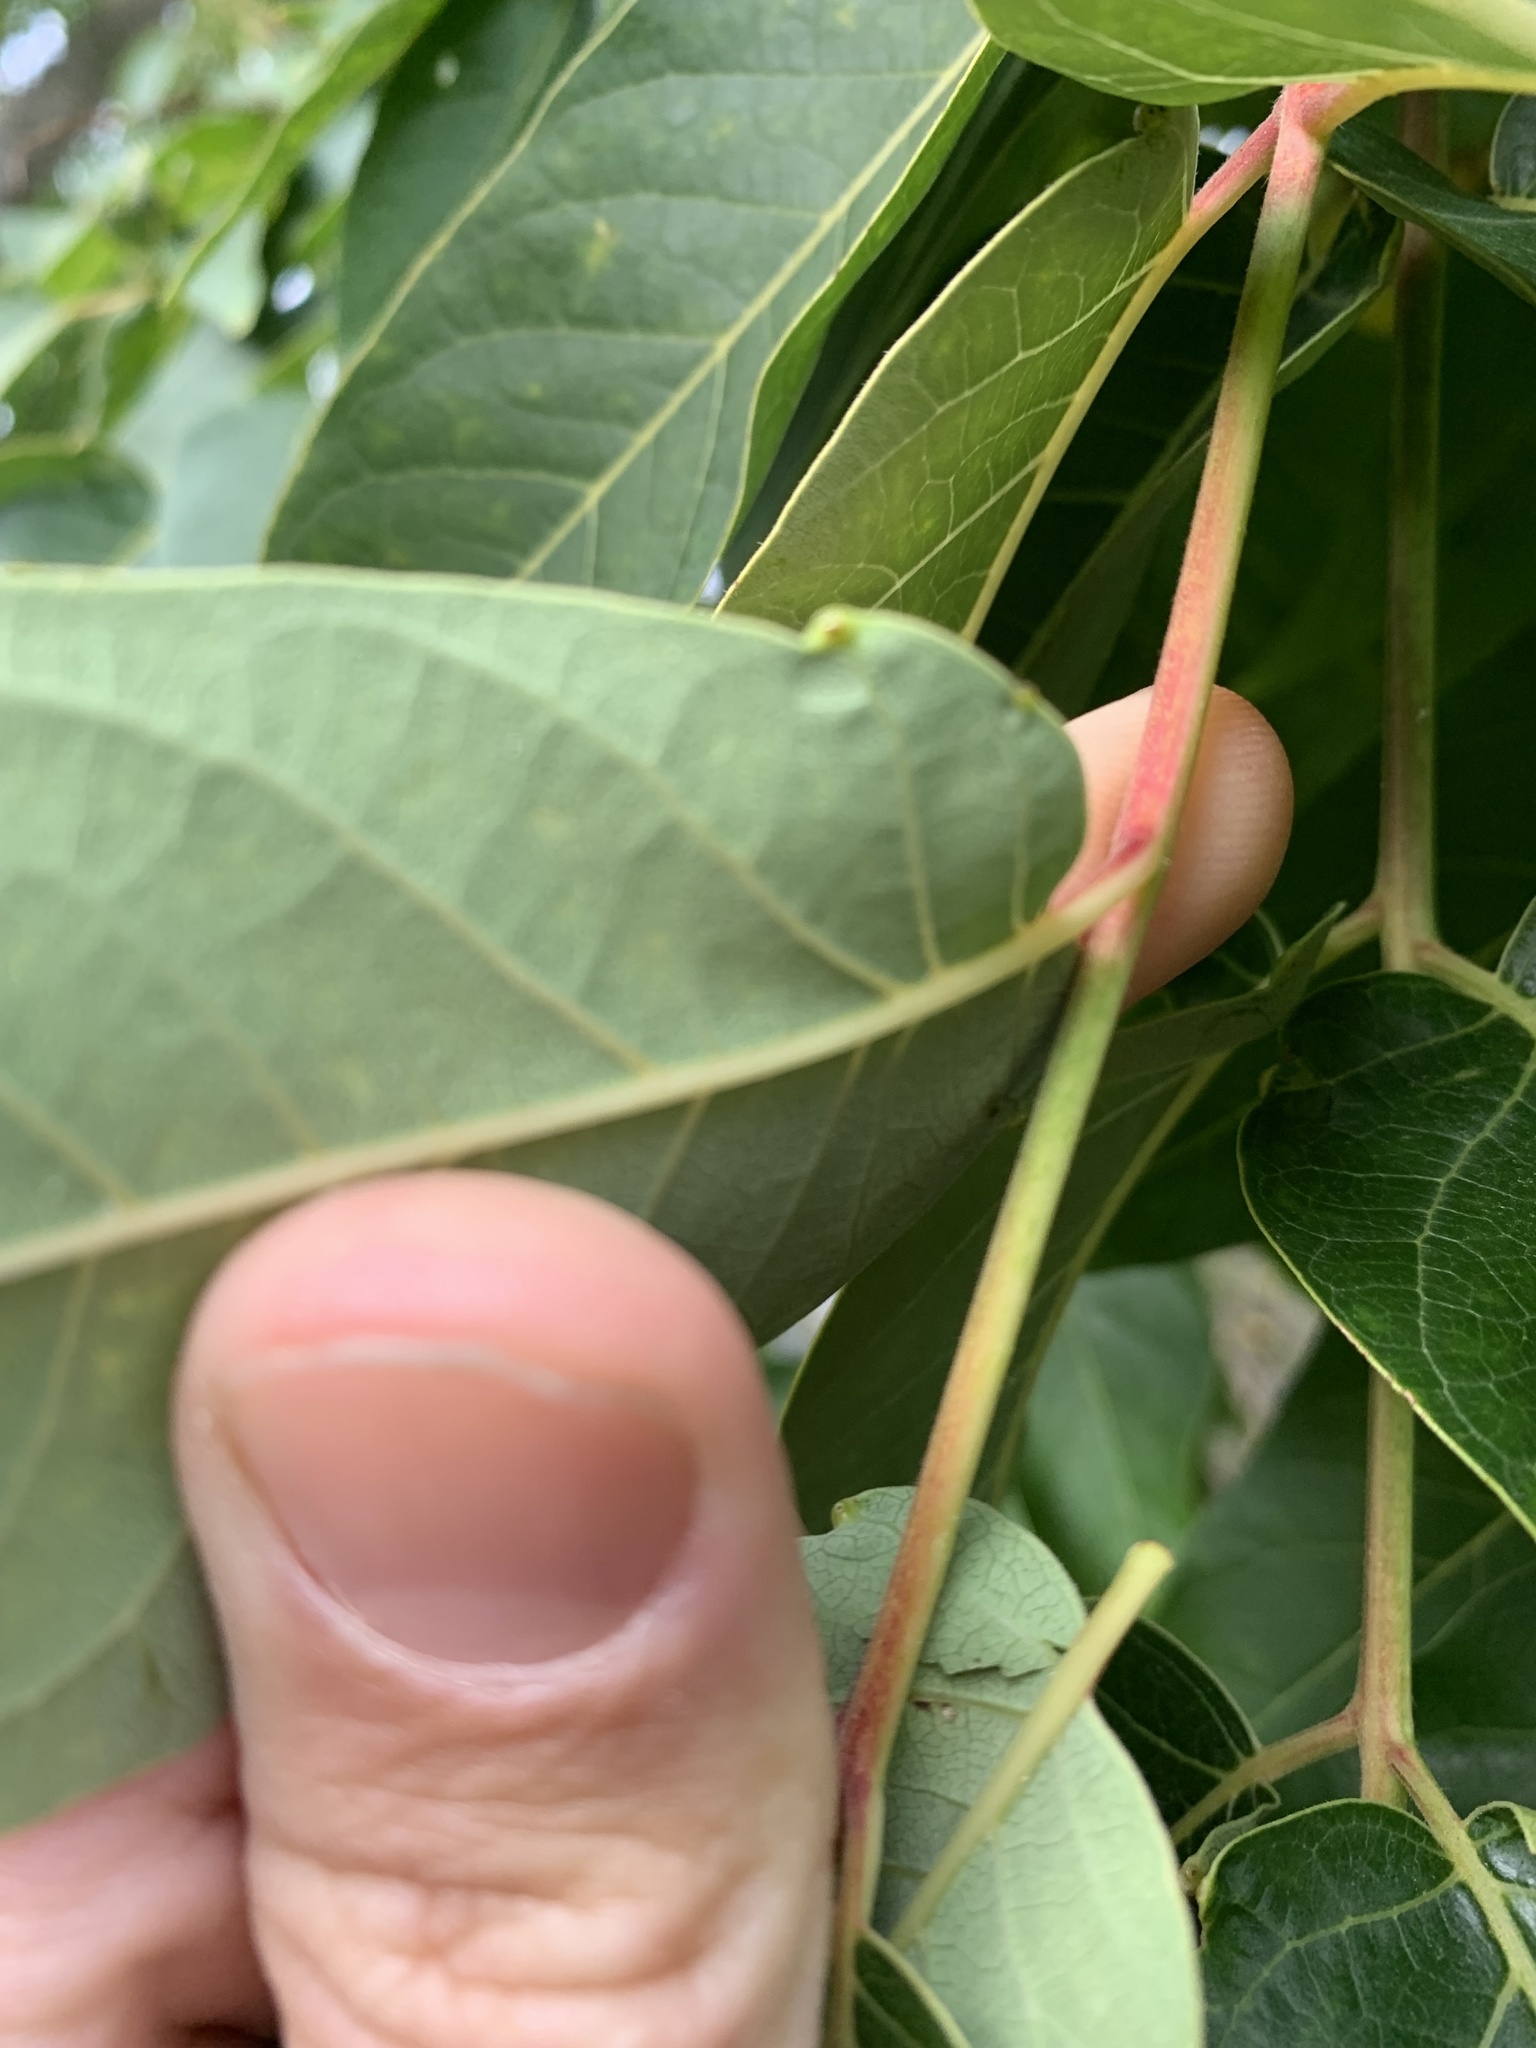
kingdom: Plantae
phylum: Tracheophyta
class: Magnoliopsida
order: Sapindales
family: Simaroubaceae
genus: Ailanthus
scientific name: Ailanthus altissima
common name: Tree-of-heaven
